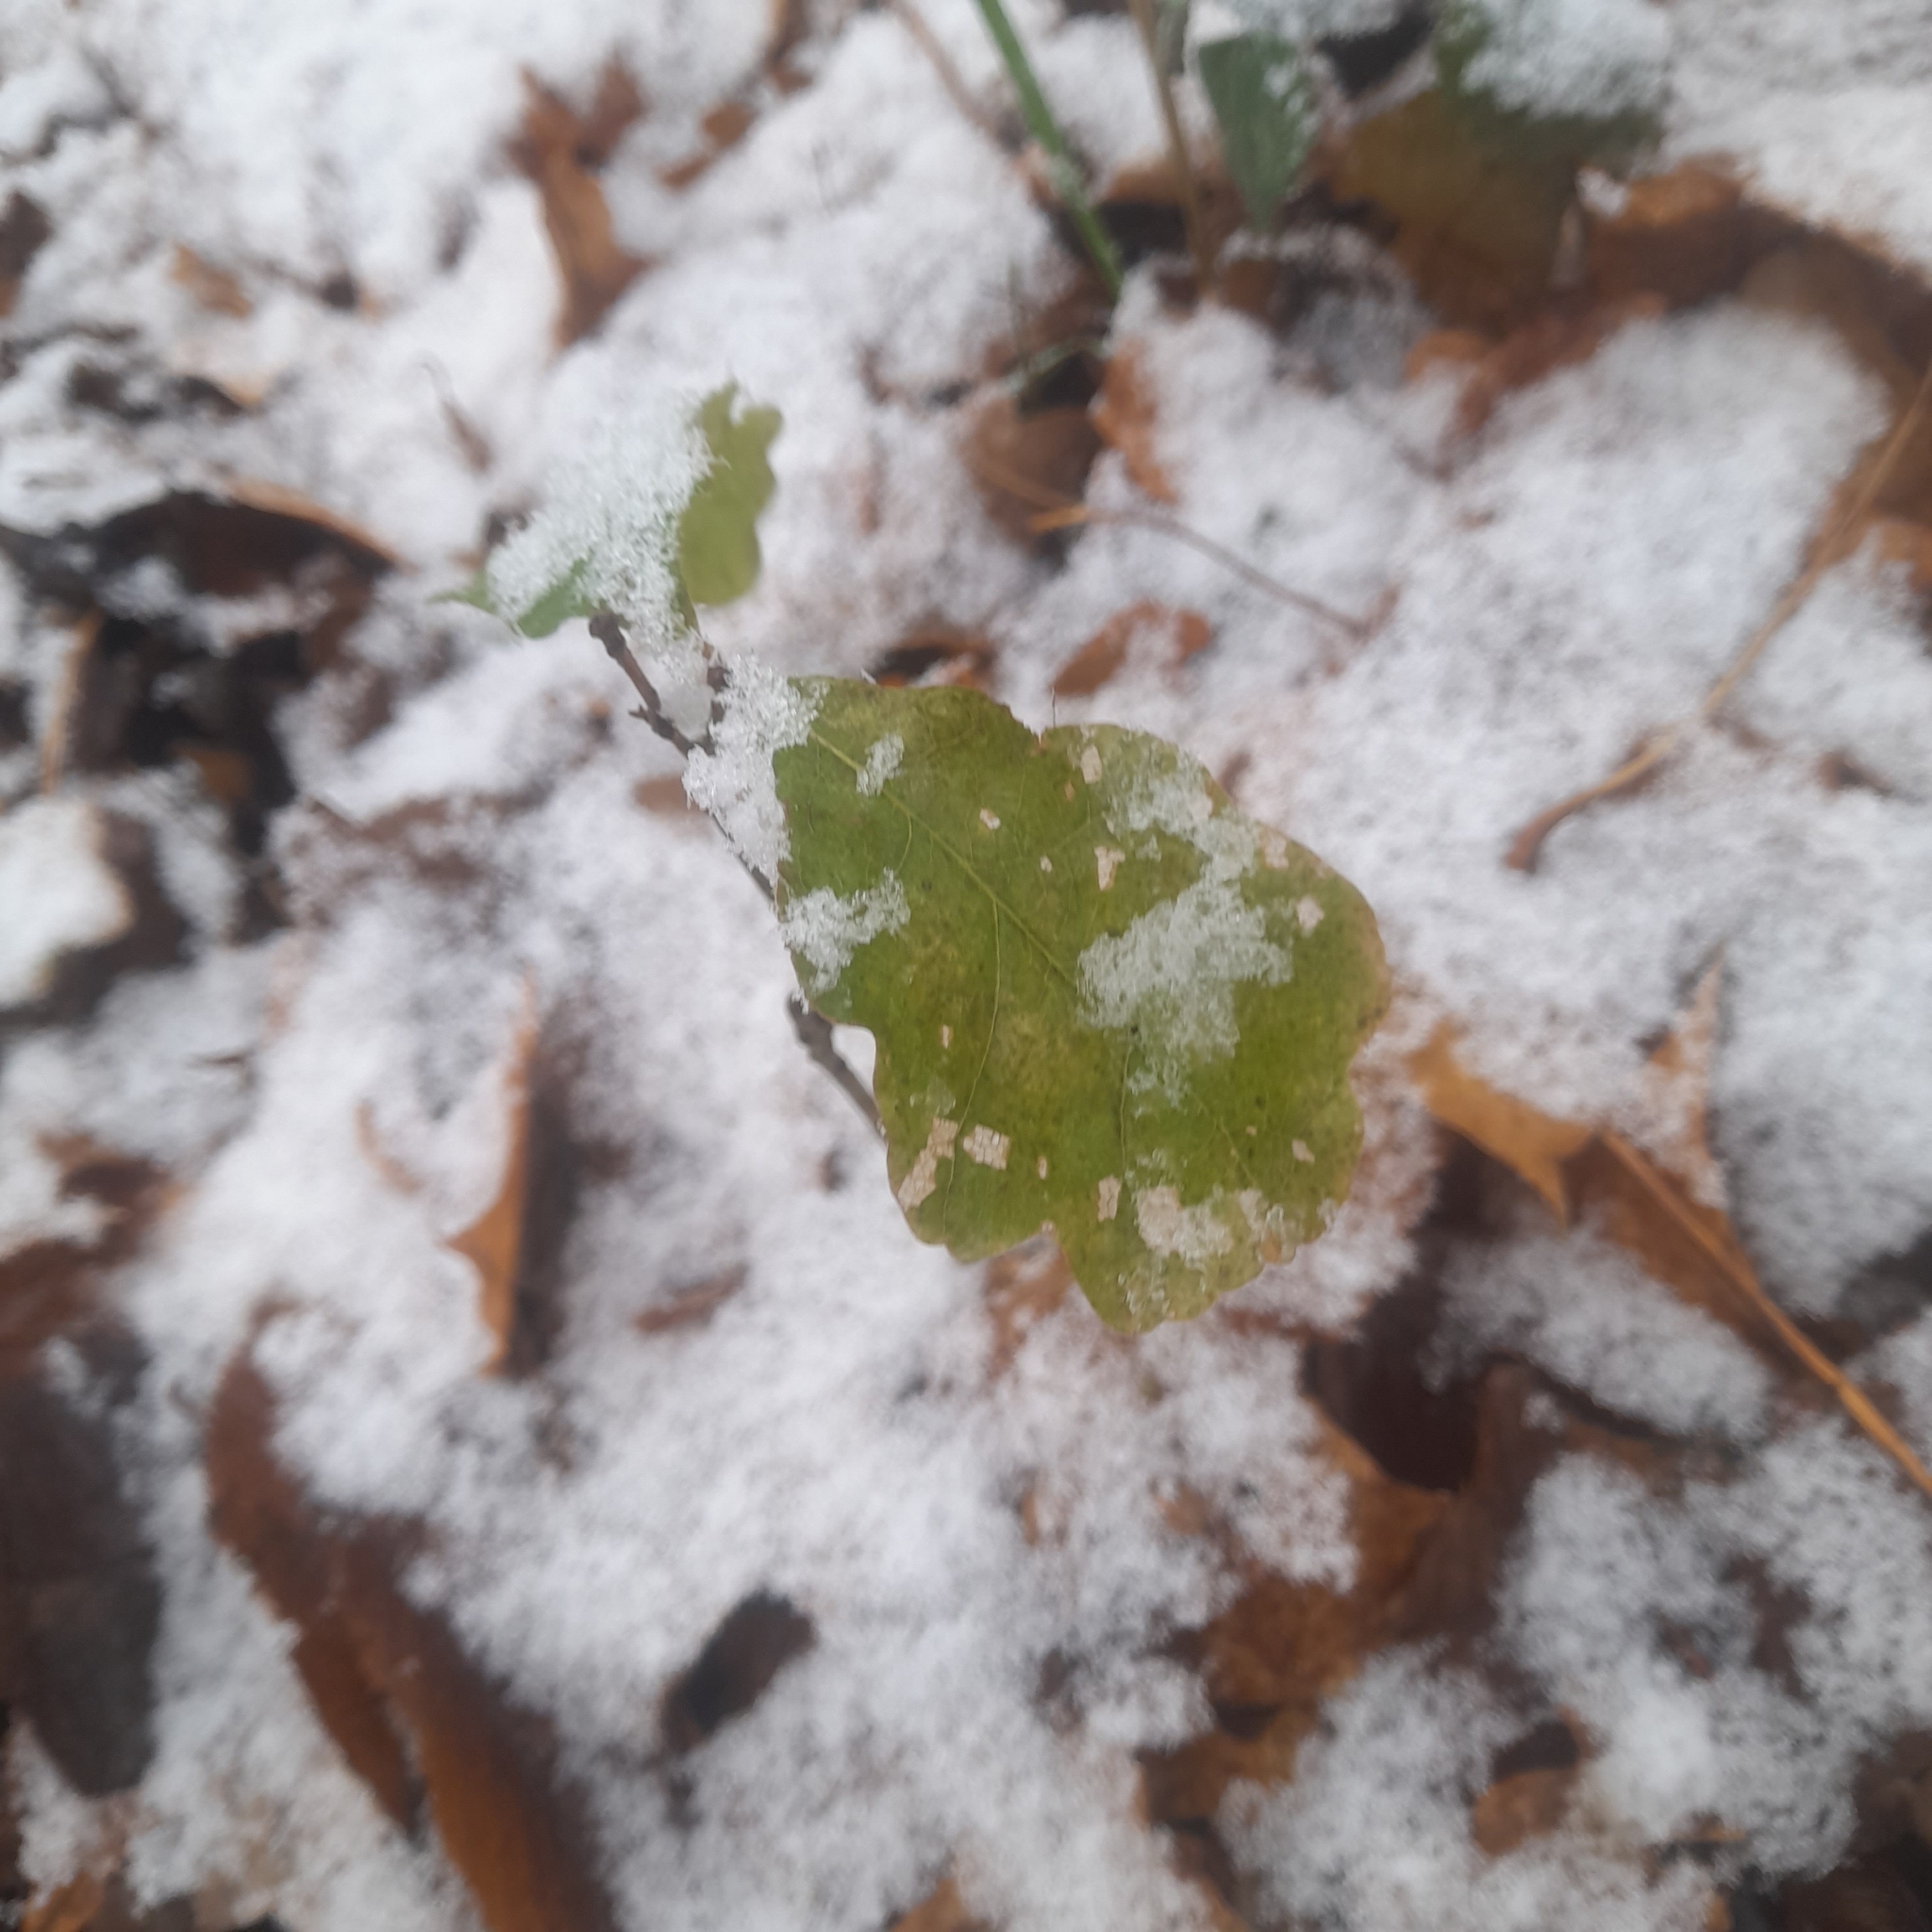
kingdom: Plantae
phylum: Tracheophyta
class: Magnoliopsida
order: Fagales
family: Fagaceae
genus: Quercus
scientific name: Quercus robur
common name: Pedunculate oak
